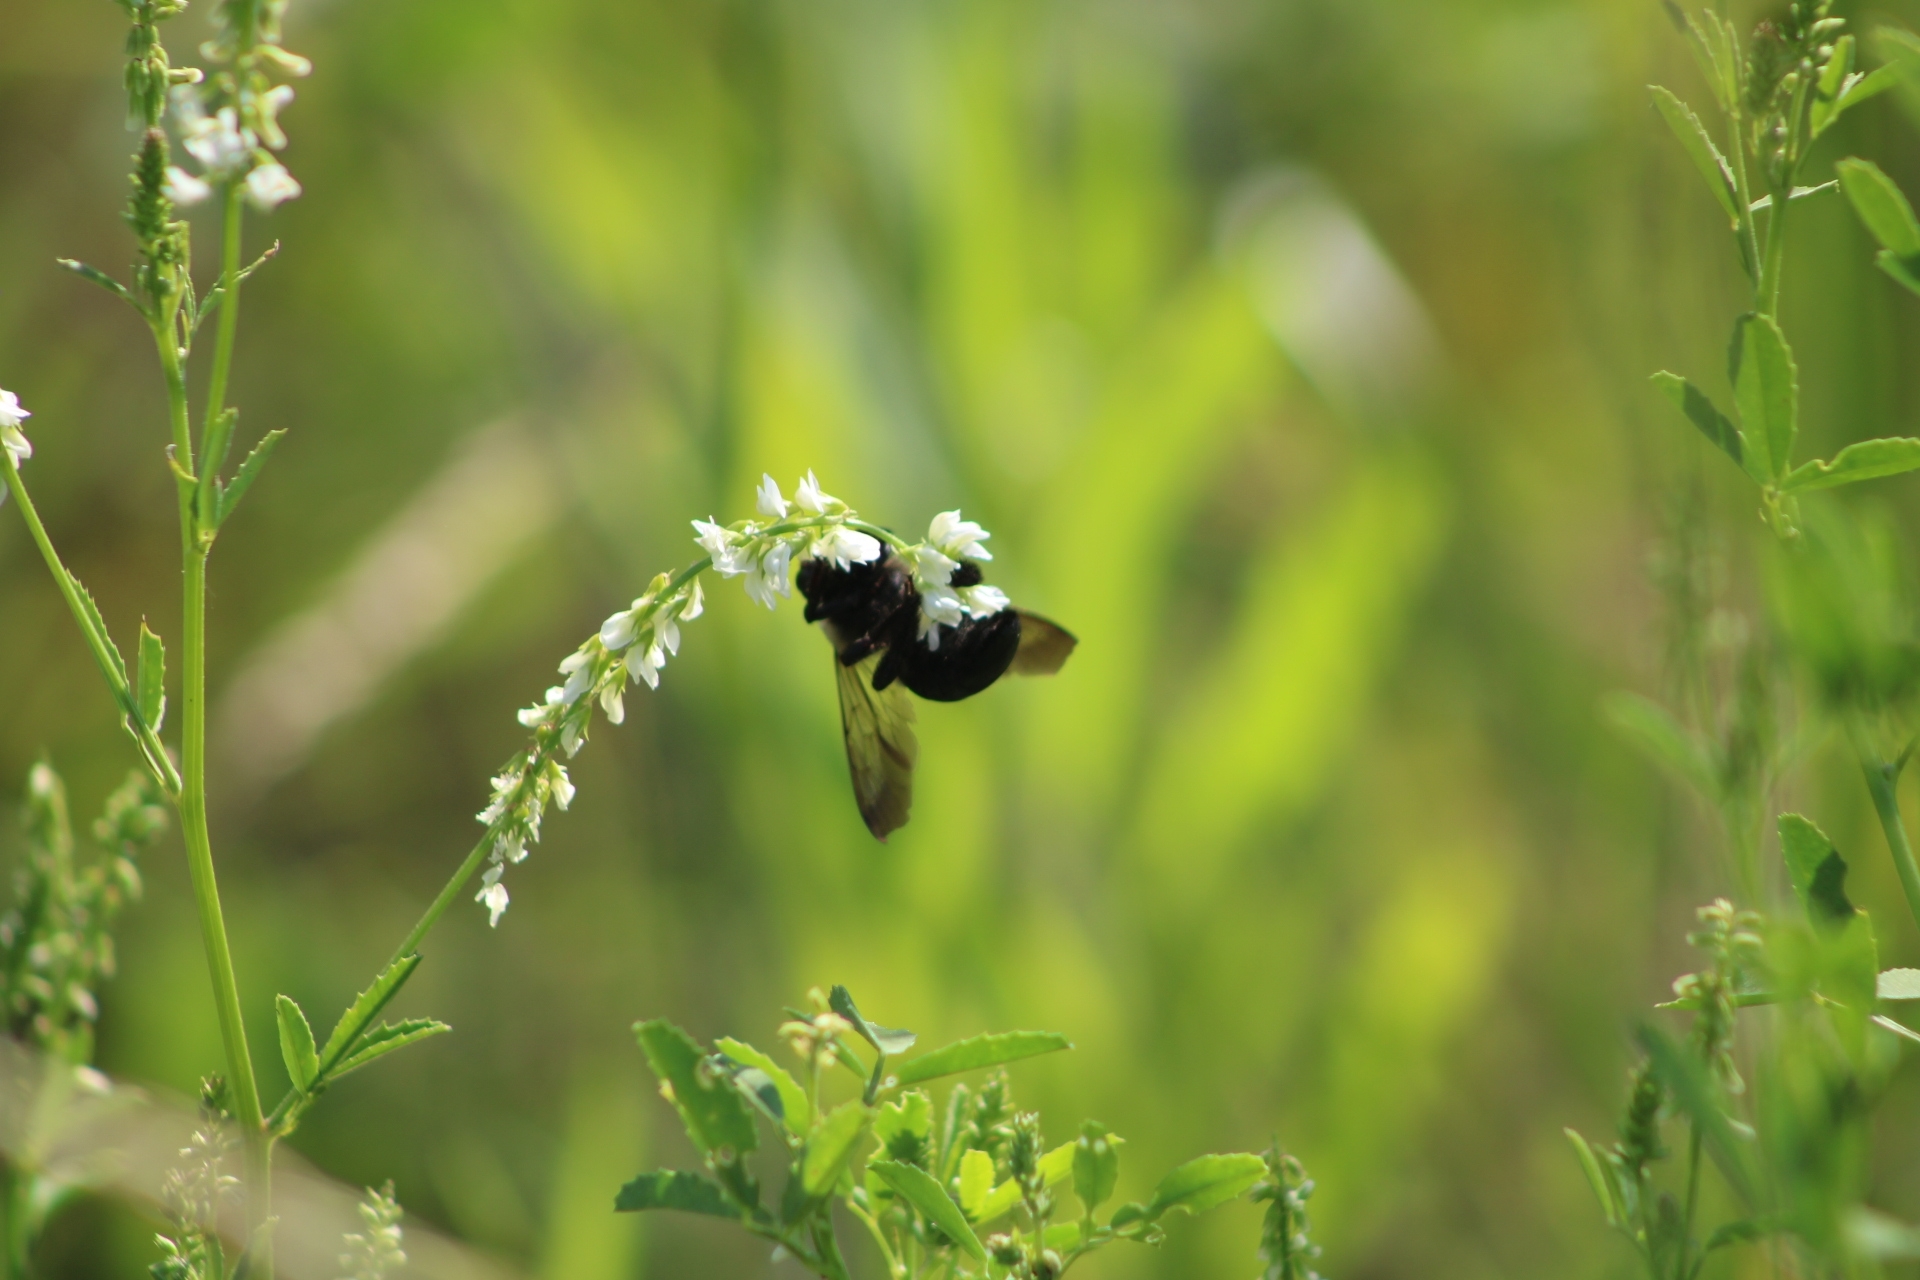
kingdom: Animalia
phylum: Arthropoda
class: Insecta
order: Hymenoptera
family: Apidae
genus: Xylocopa
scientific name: Xylocopa virginica
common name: Carpenter bee
